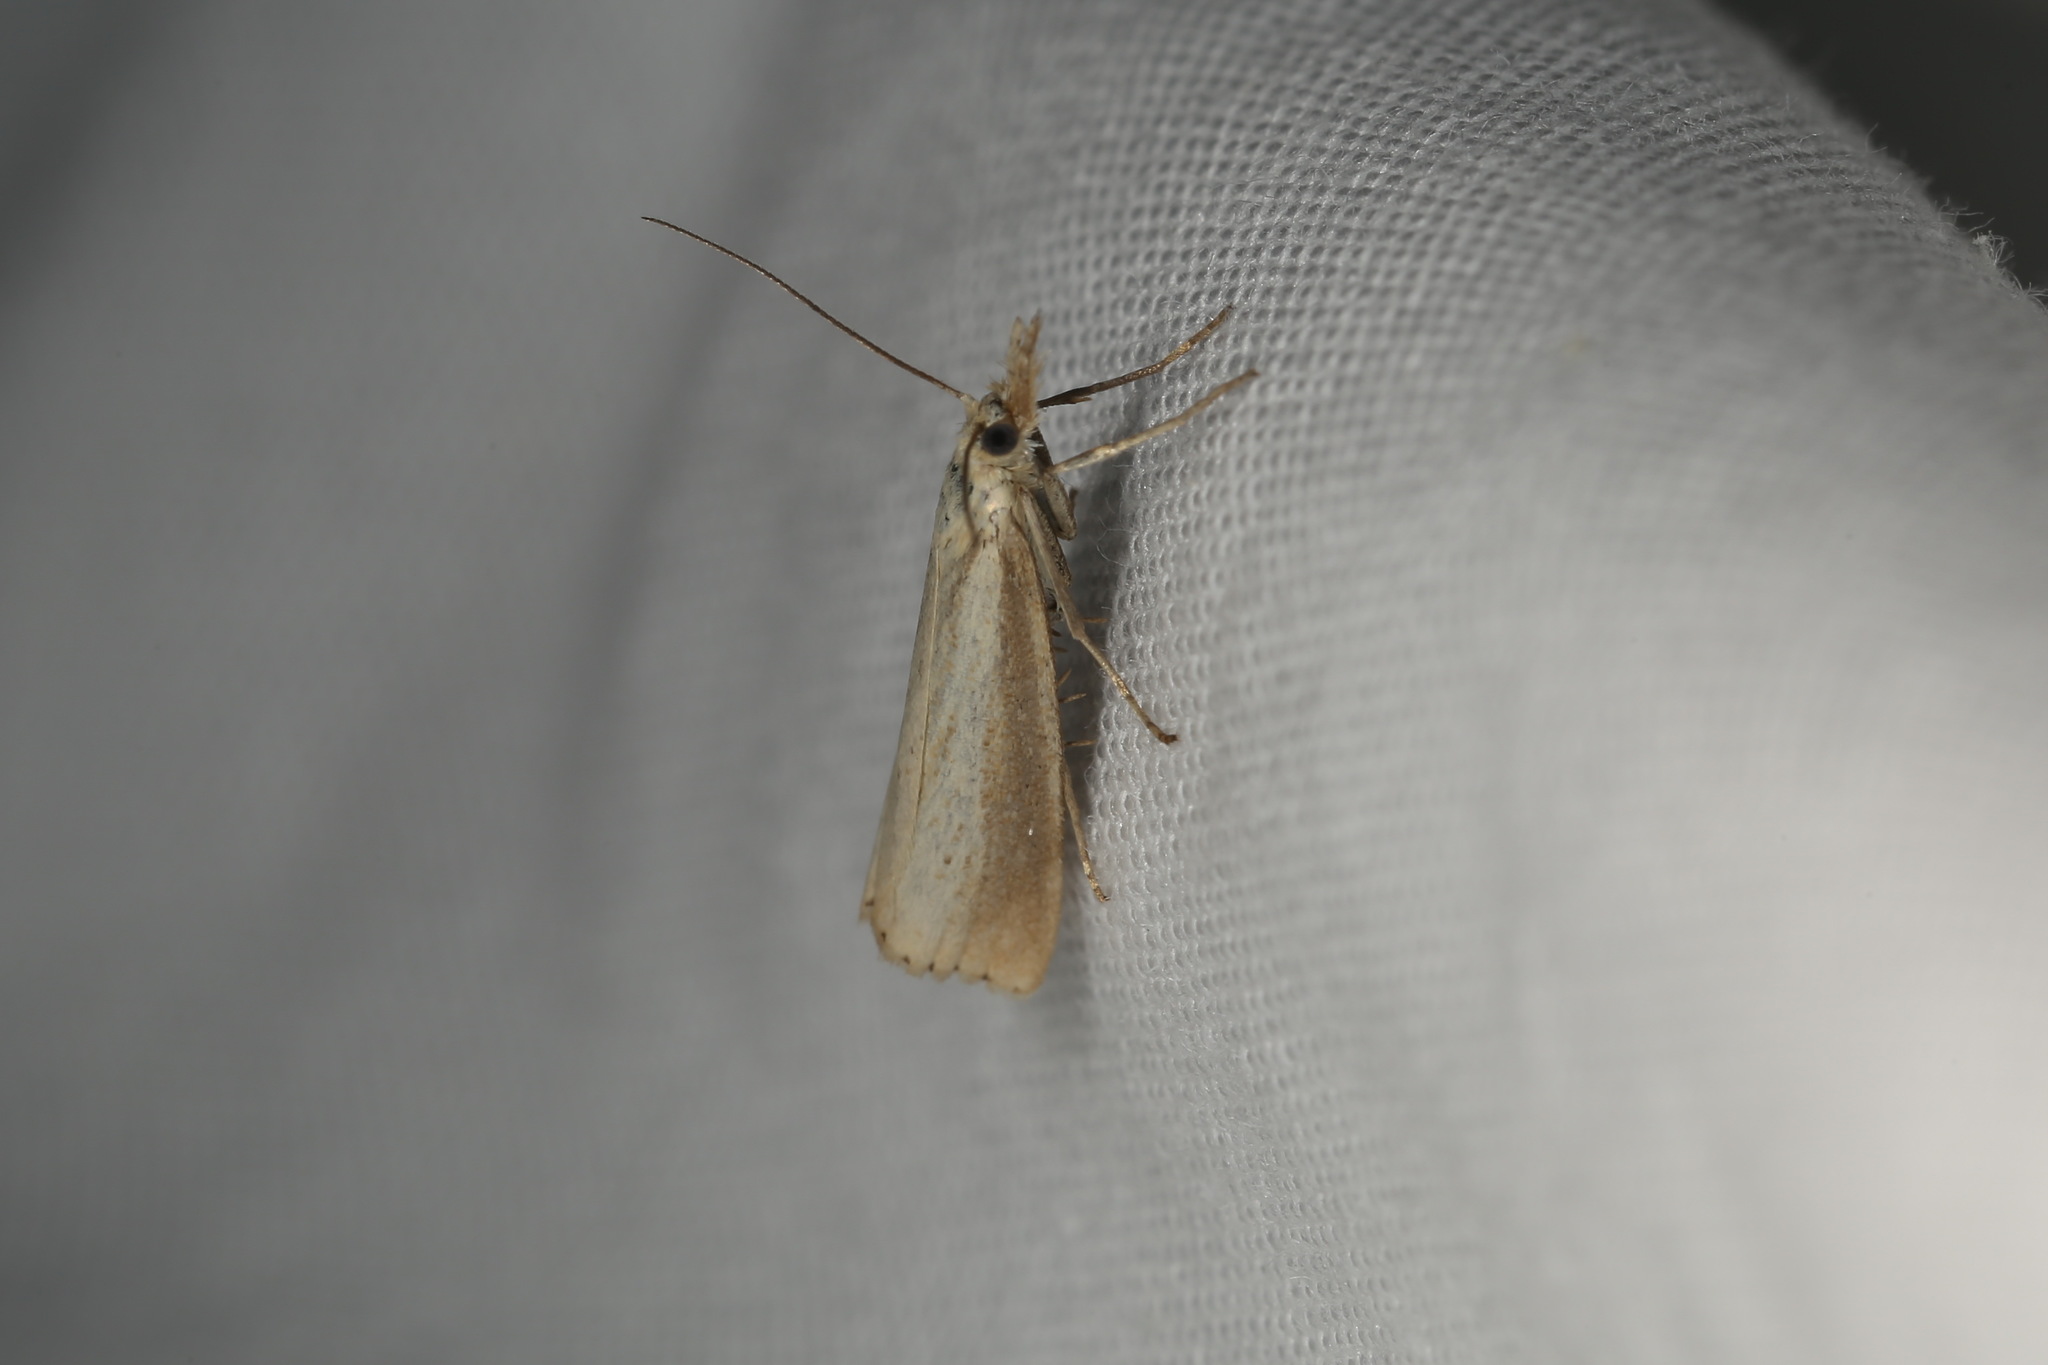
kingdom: Animalia
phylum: Arthropoda
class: Insecta
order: Lepidoptera
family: Crambidae
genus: Agriphila
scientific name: Agriphila straminella
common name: Straw grass-veneer
